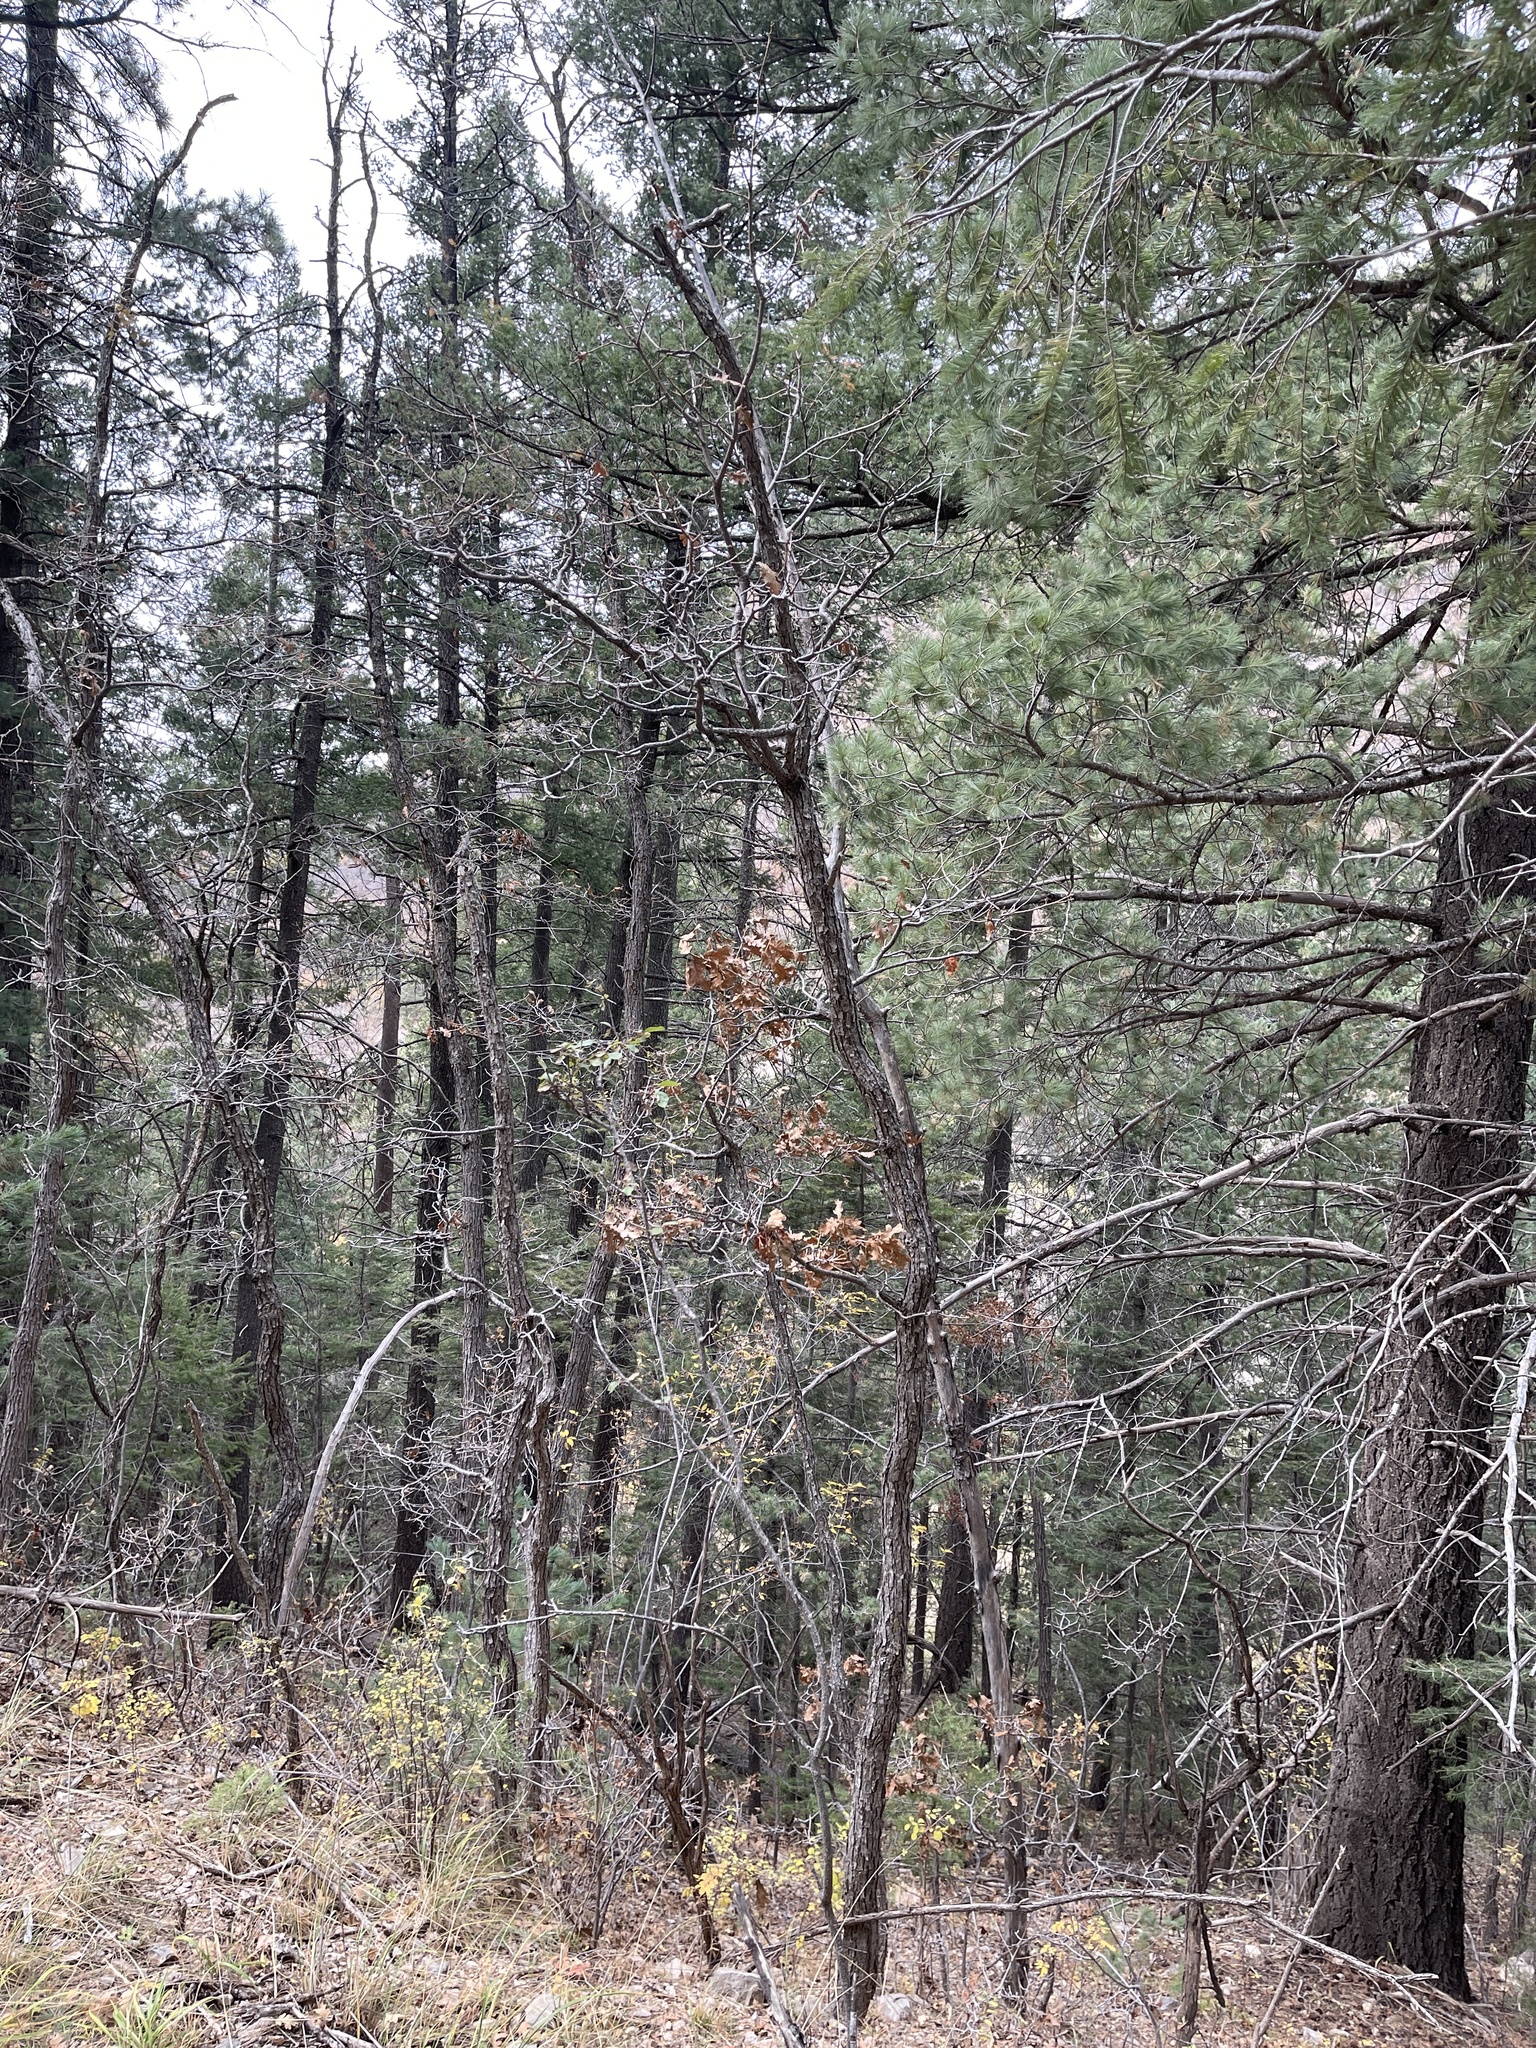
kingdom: Plantae
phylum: Tracheophyta
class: Magnoliopsida
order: Fagales
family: Fagaceae
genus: Quercus
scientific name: Quercus gambelii
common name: Gambel oak
